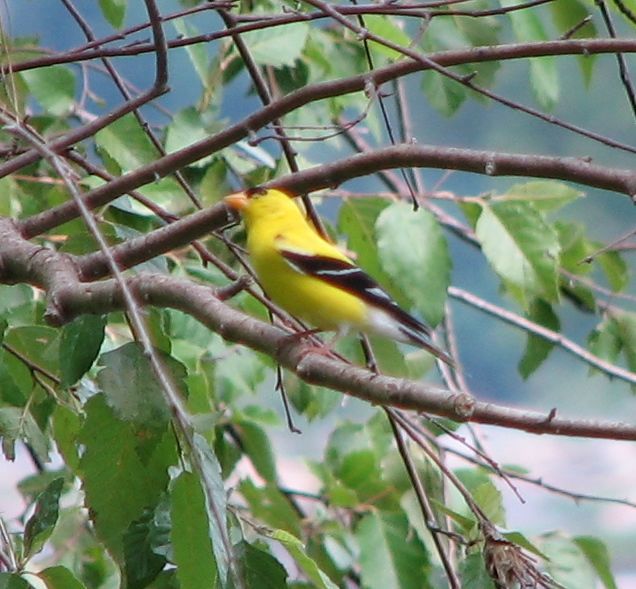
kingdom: Animalia
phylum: Chordata
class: Aves
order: Passeriformes
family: Fringillidae
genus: Spinus
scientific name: Spinus tristis
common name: American goldfinch
